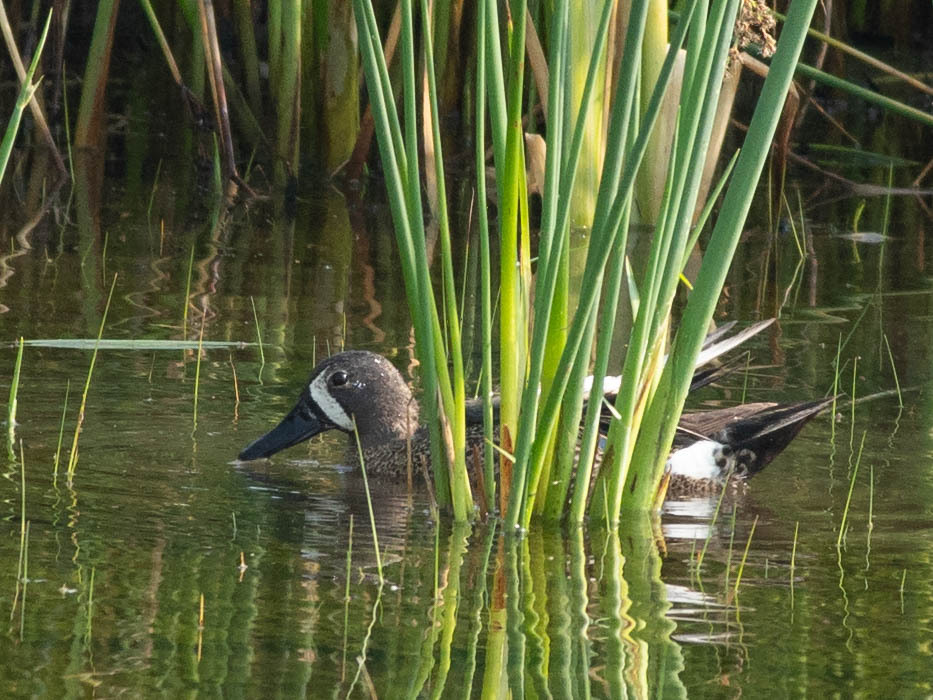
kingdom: Animalia
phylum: Chordata
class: Aves
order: Anseriformes
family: Anatidae
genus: Spatula
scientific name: Spatula discors
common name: Blue-winged teal
